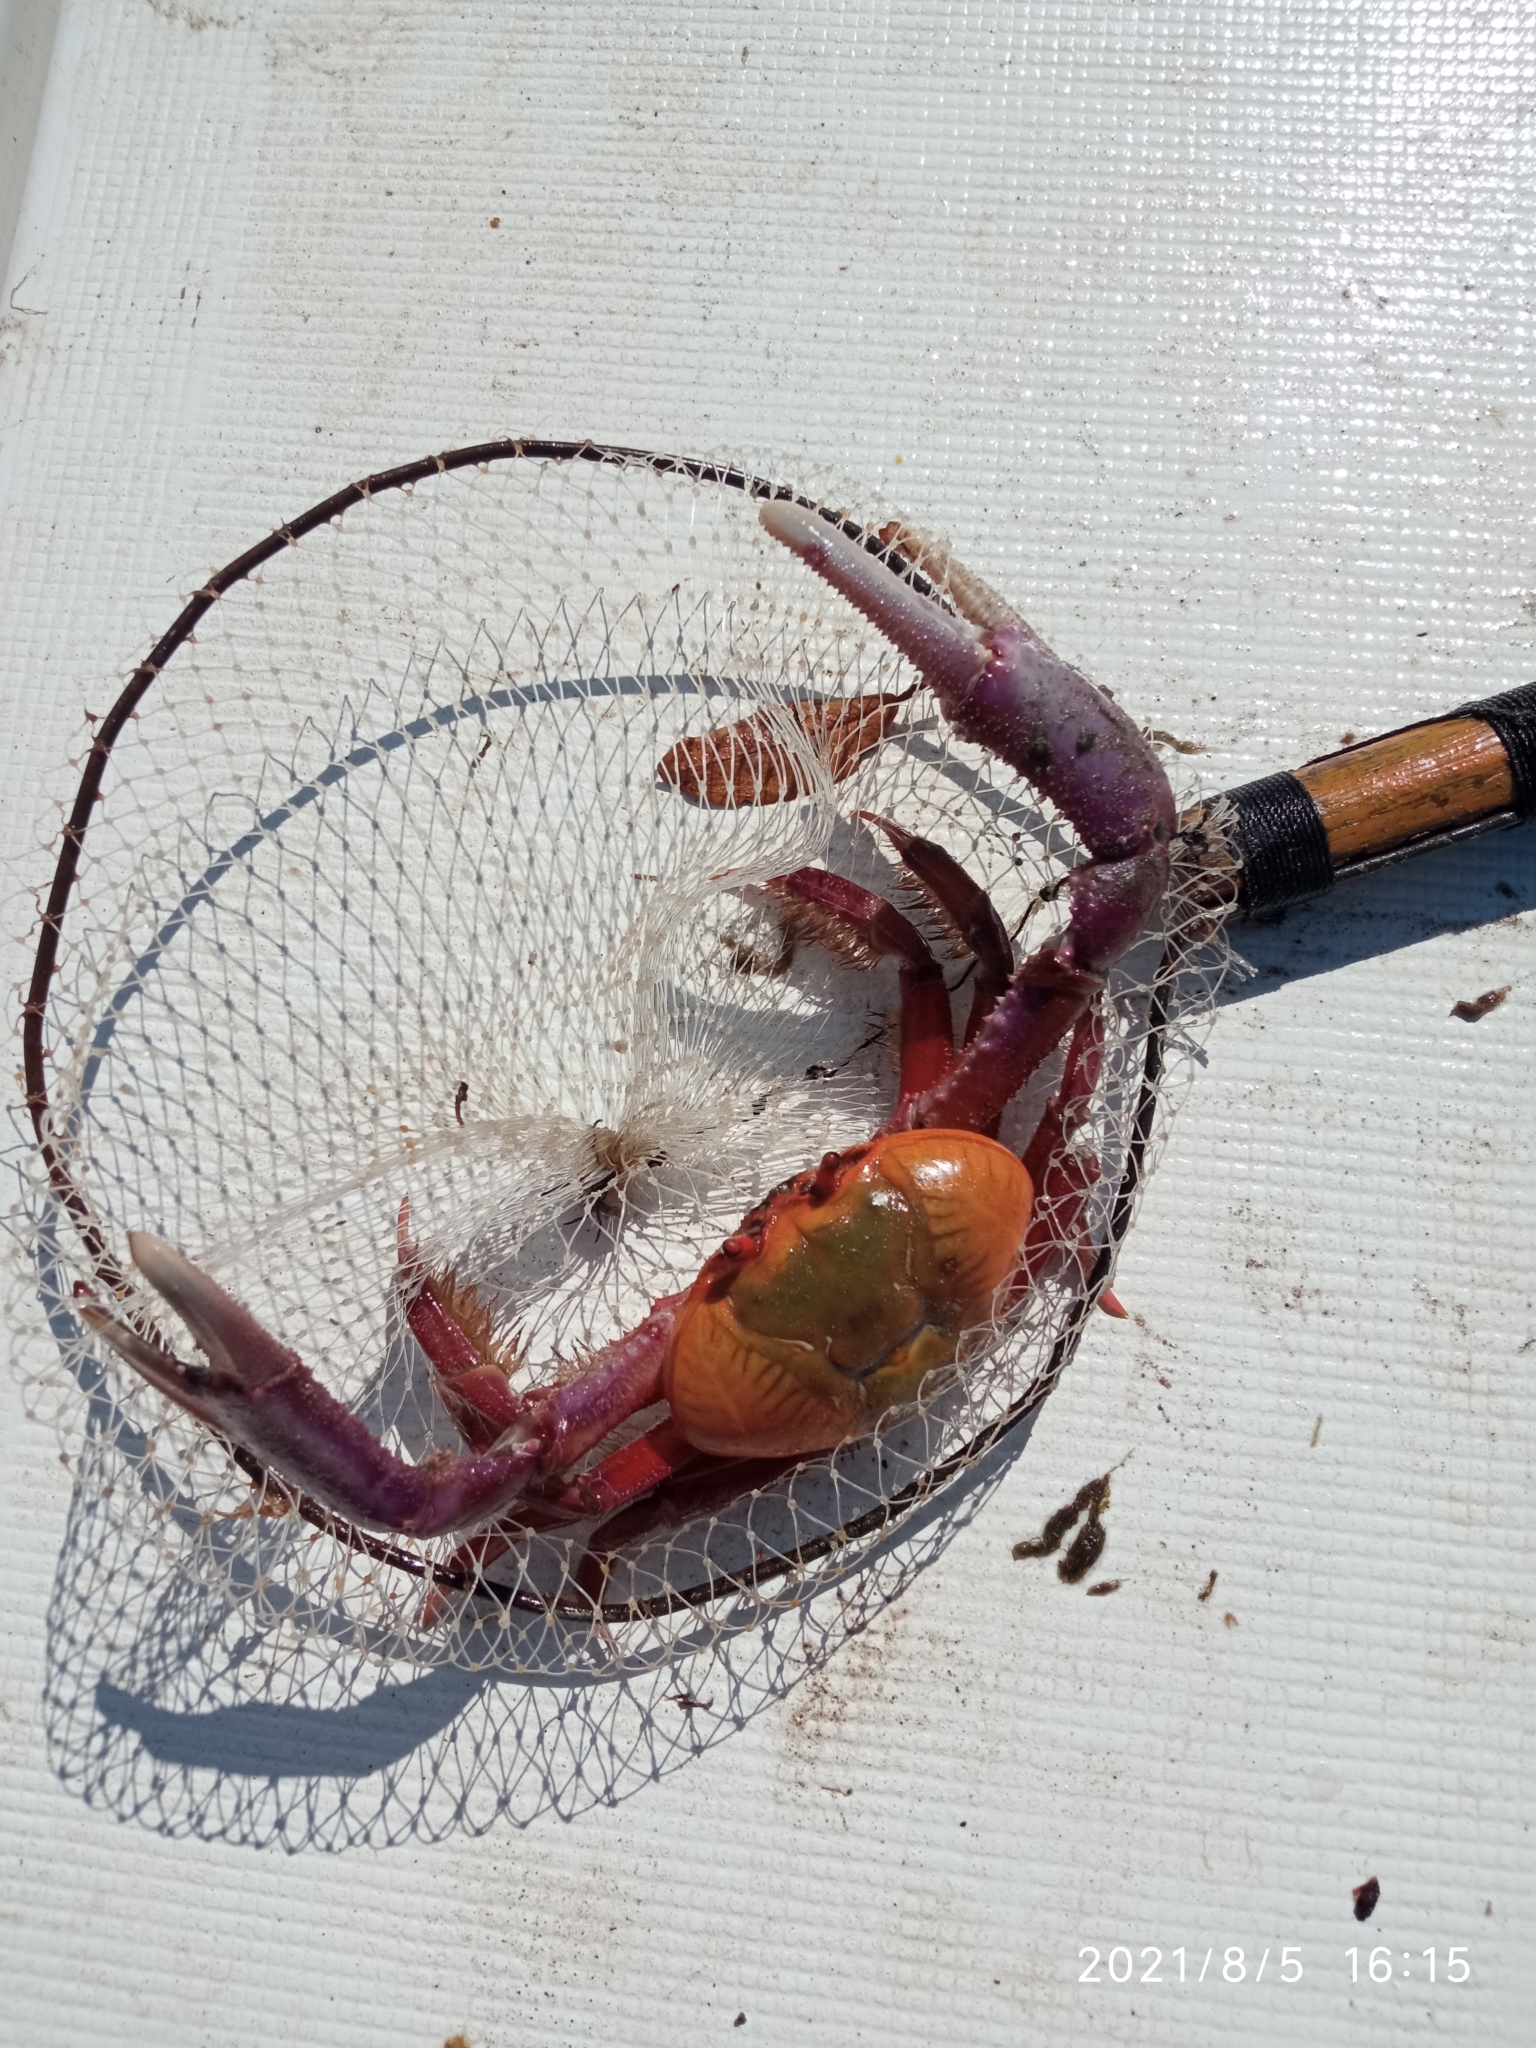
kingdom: Animalia
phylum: Arthropoda
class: Malacostraca
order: Decapoda
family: Ocypodidae
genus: Ucides
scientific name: Ucides occidentalis
